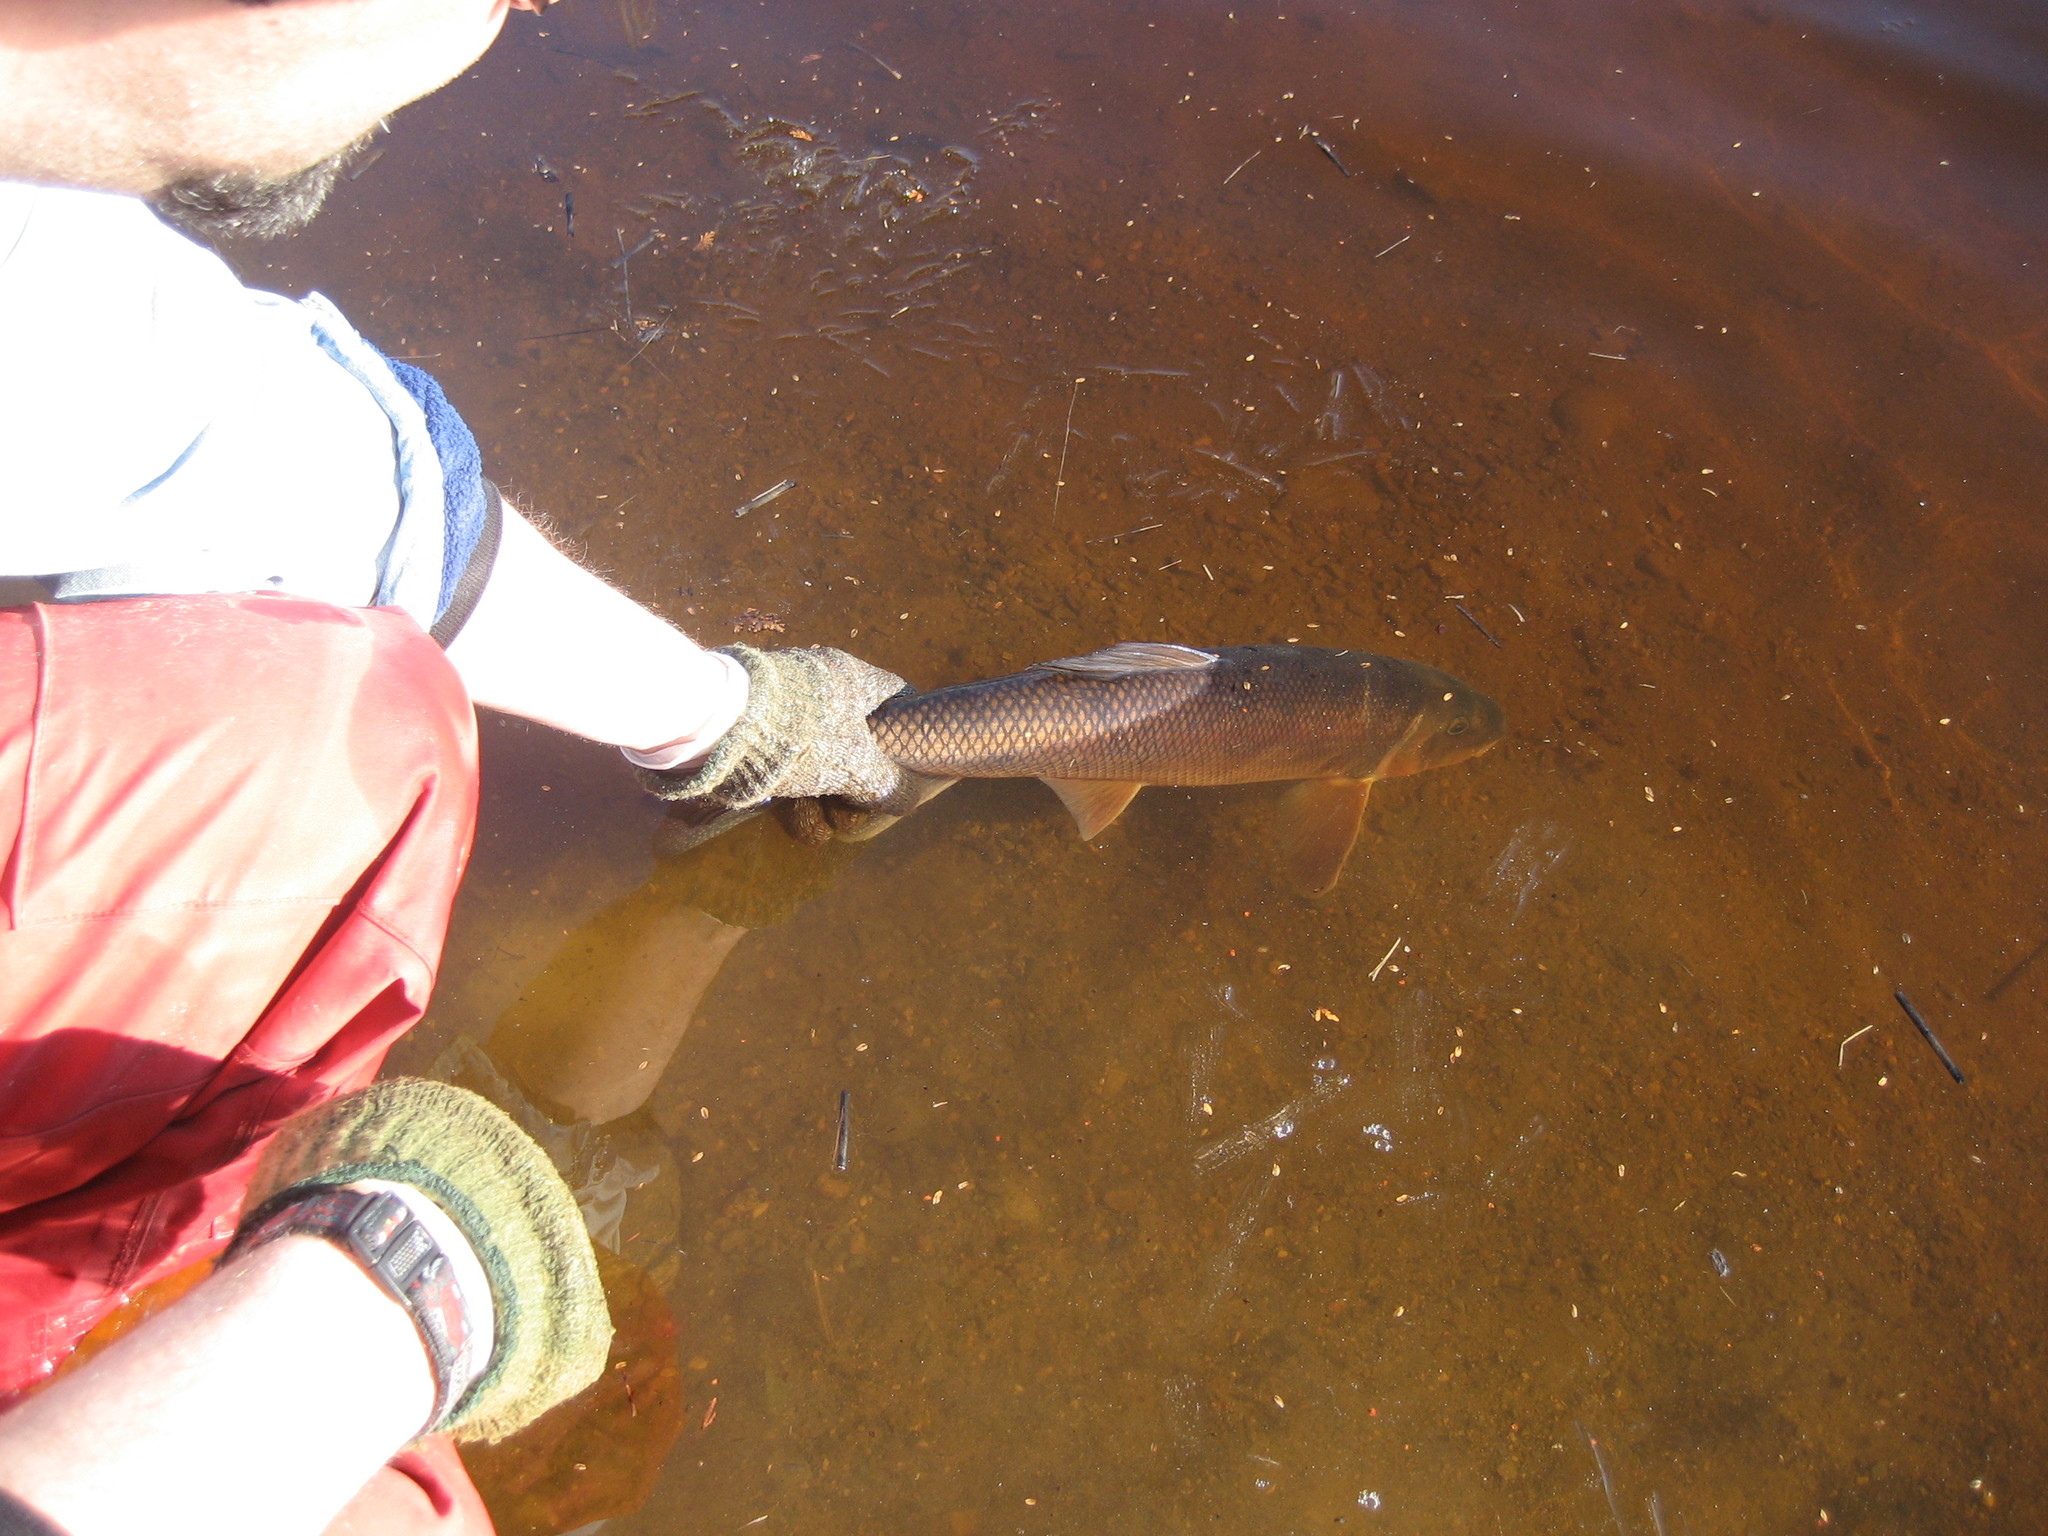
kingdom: Animalia
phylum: Chordata
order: Cypriniformes
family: Catostomidae
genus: Catostomus
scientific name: Catostomus commersonii
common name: White sucker
